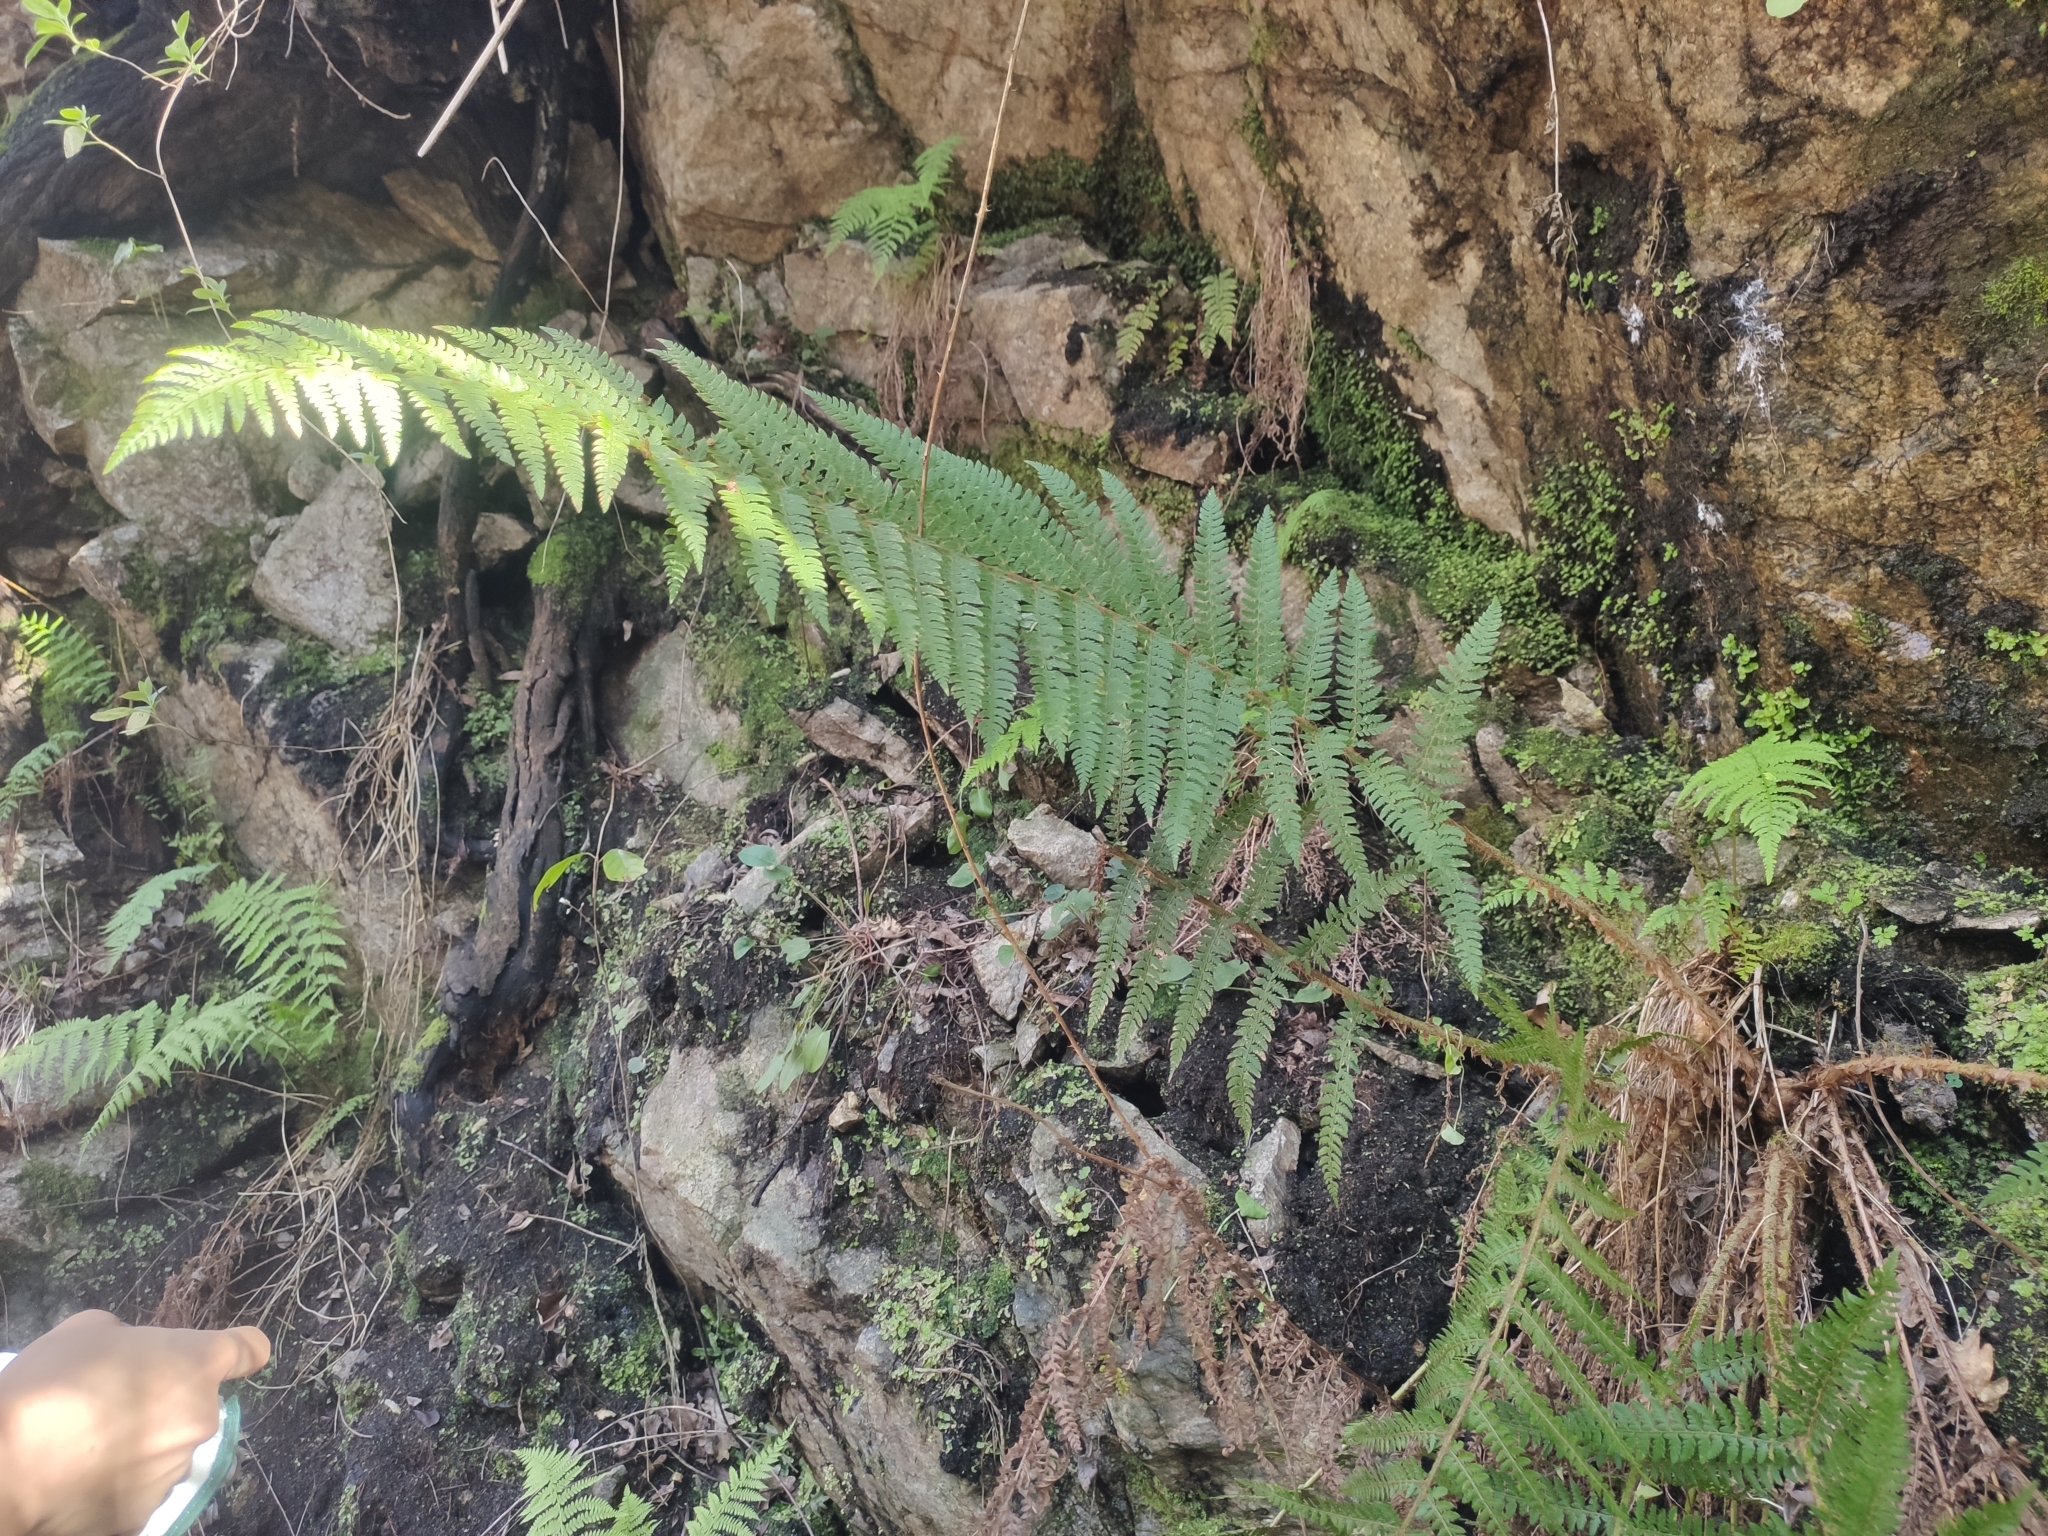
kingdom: Plantae
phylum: Tracheophyta
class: Polypodiopsida
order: Polypodiales
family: Dryopteridaceae
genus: Polystichum
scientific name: Polystichum setiferum
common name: Soft shield-fern
